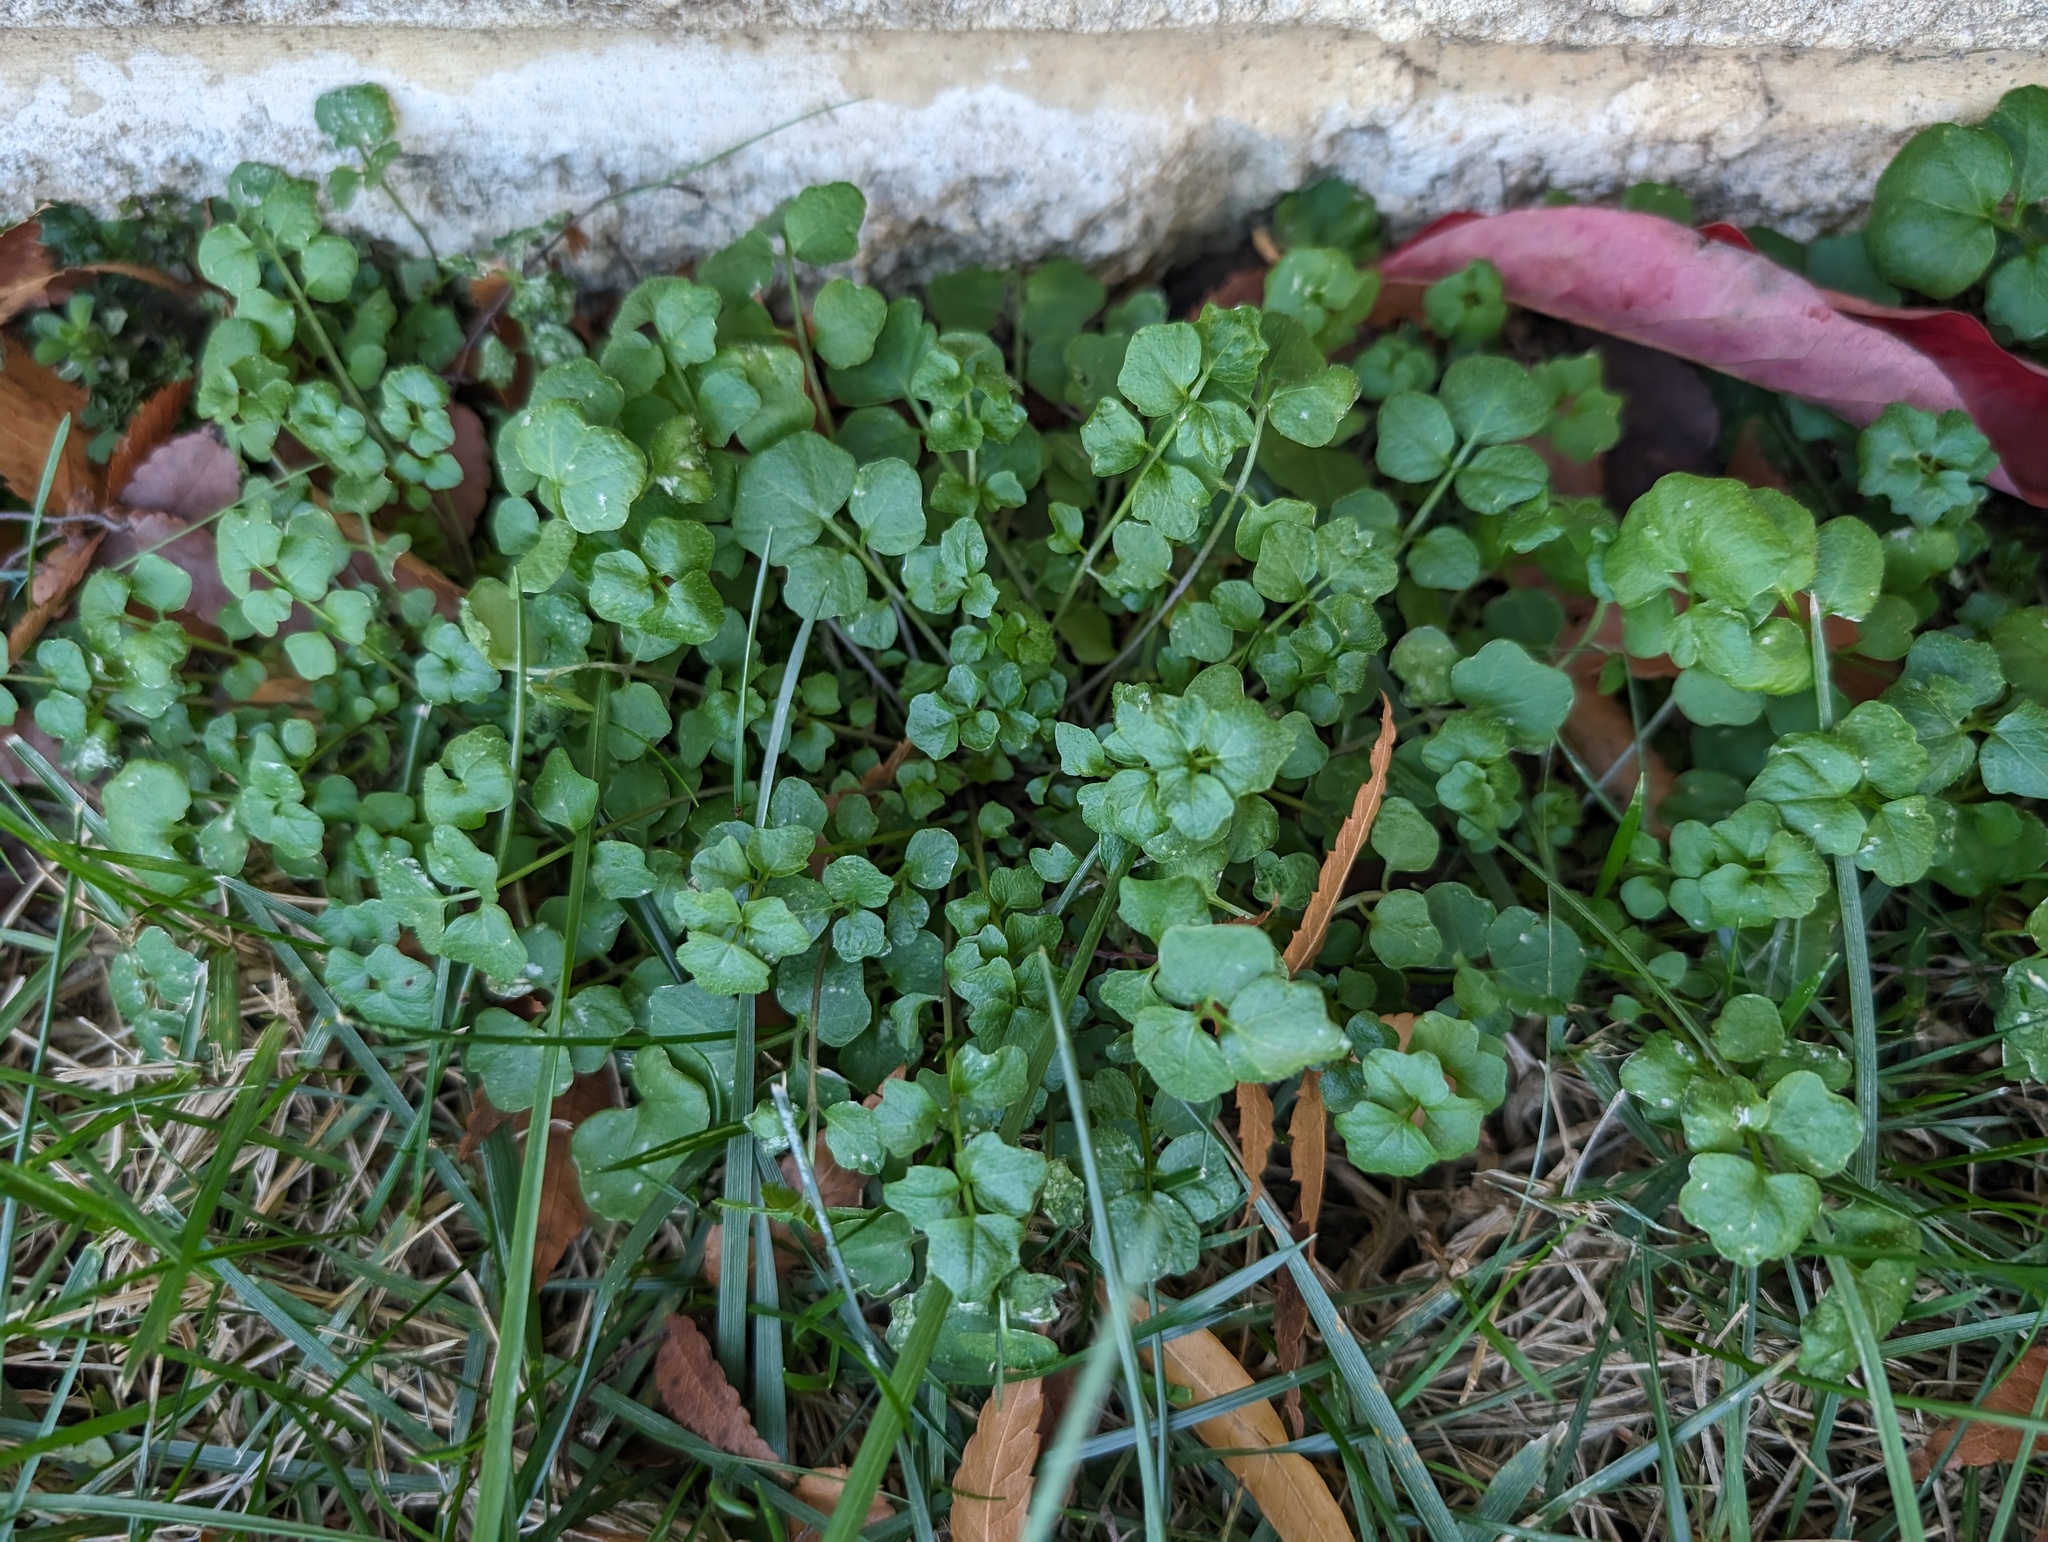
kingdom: Plantae
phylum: Tracheophyta
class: Magnoliopsida
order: Brassicales
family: Brassicaceae
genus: Cardamine
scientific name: Cardamine hirsuta
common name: Hairy bittercress
